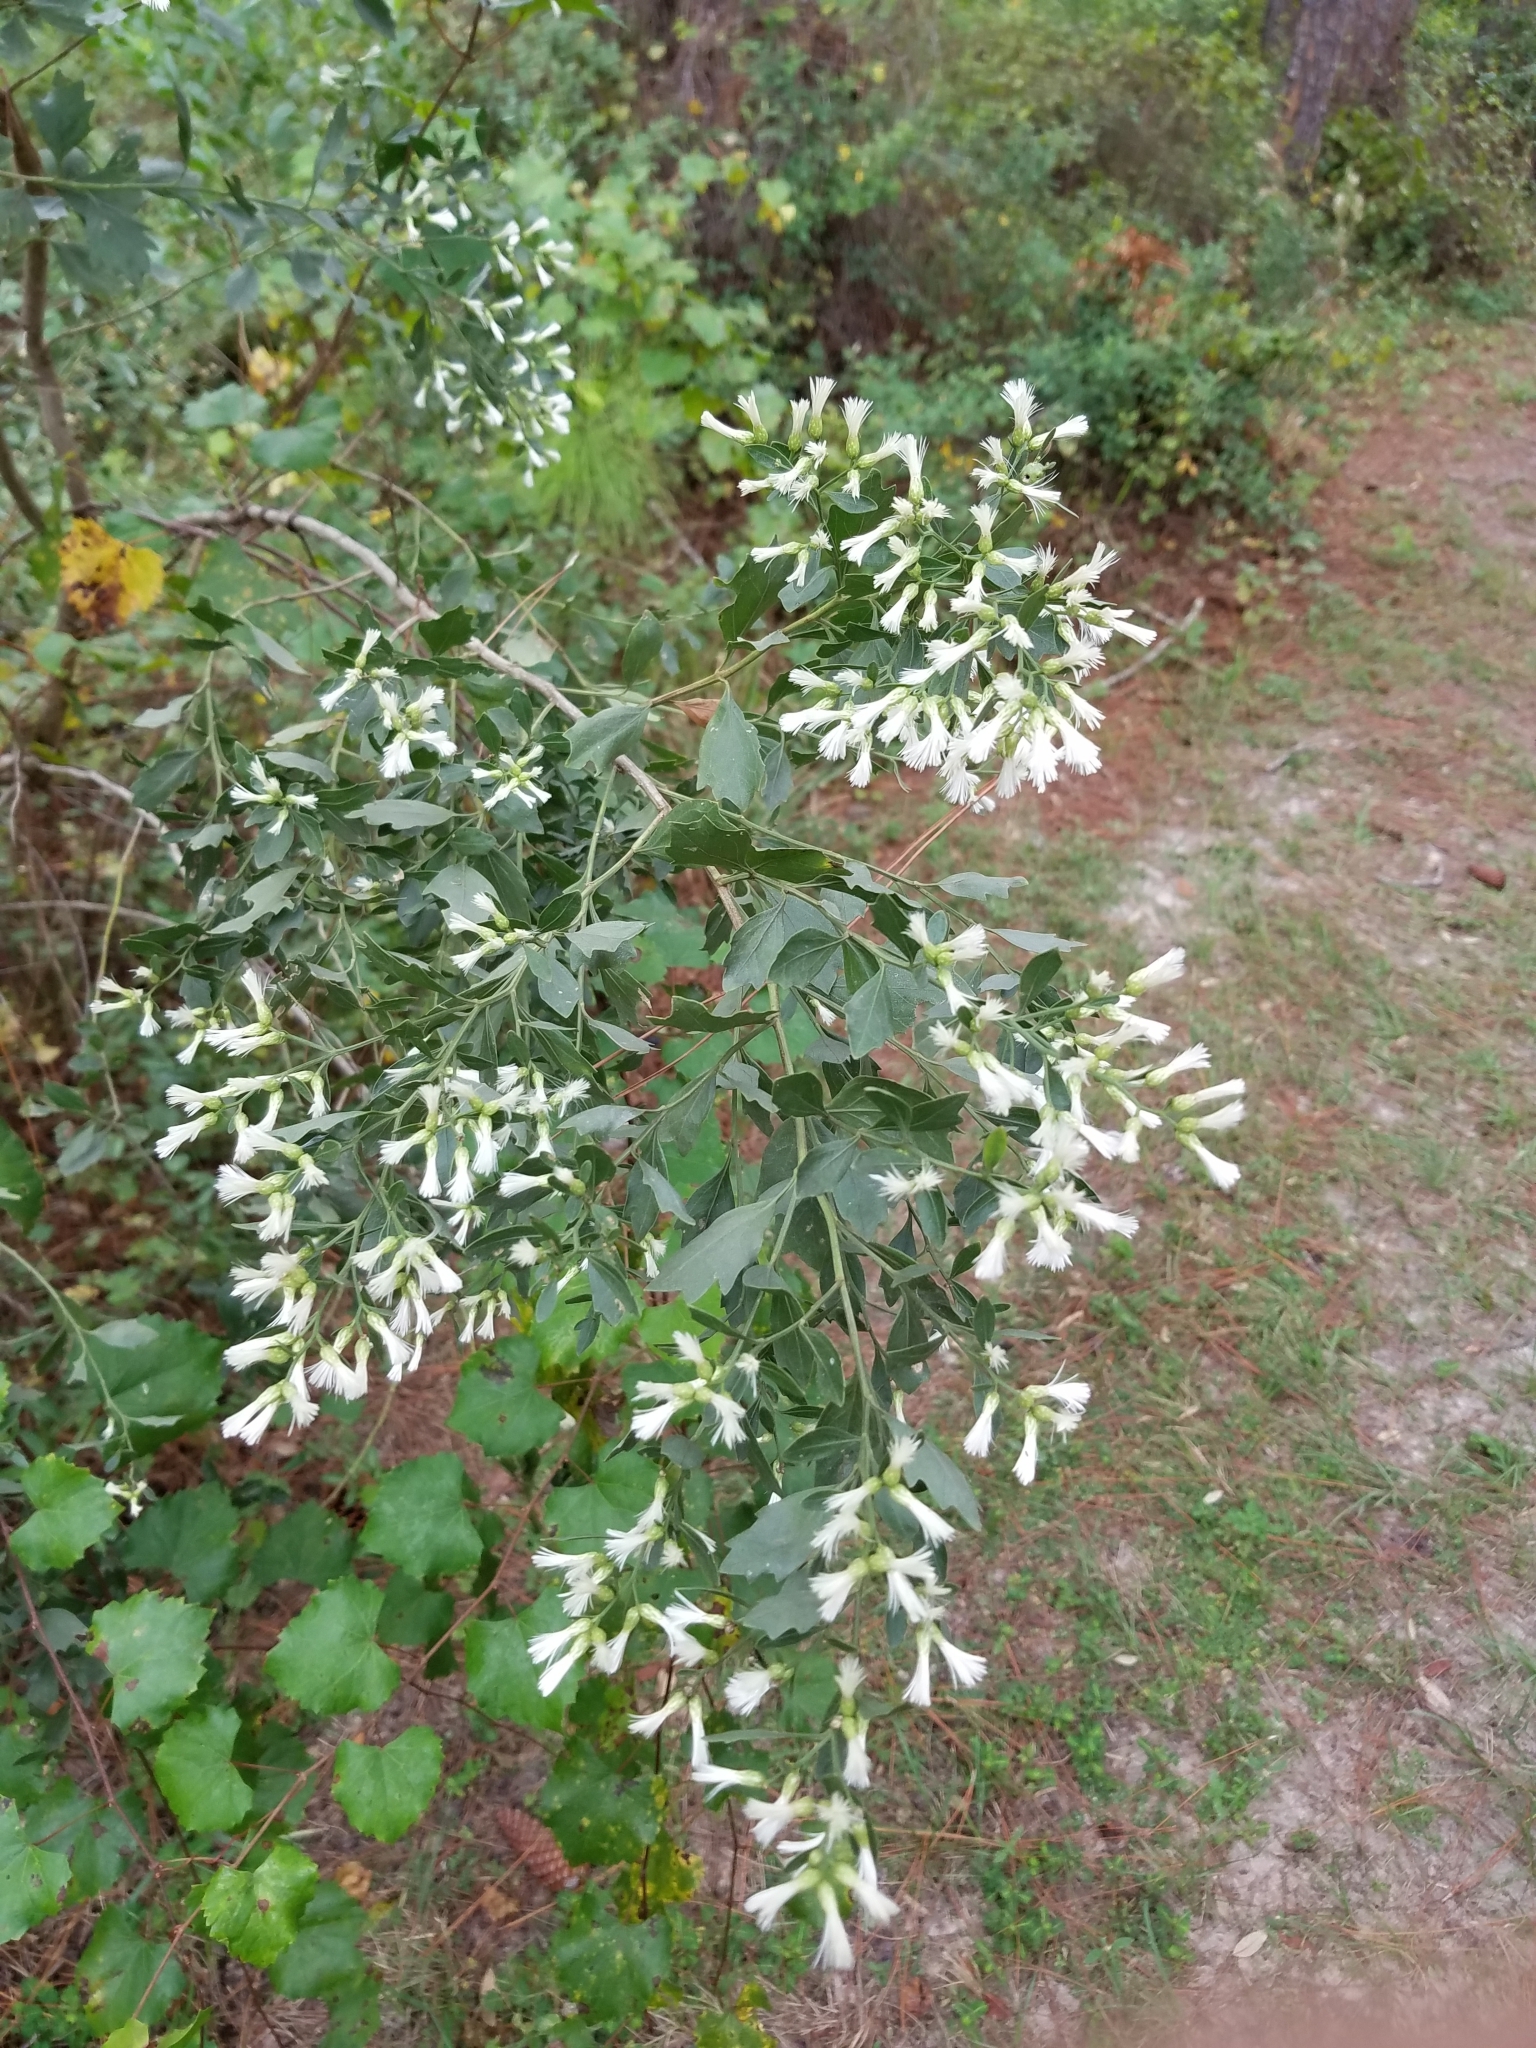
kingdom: Plantae
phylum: Tracheophyta
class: Magnoliopsida
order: Asterales
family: Asteraceae
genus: Baccharis
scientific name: Baccharis halimifolia
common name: Eastern baccharis
